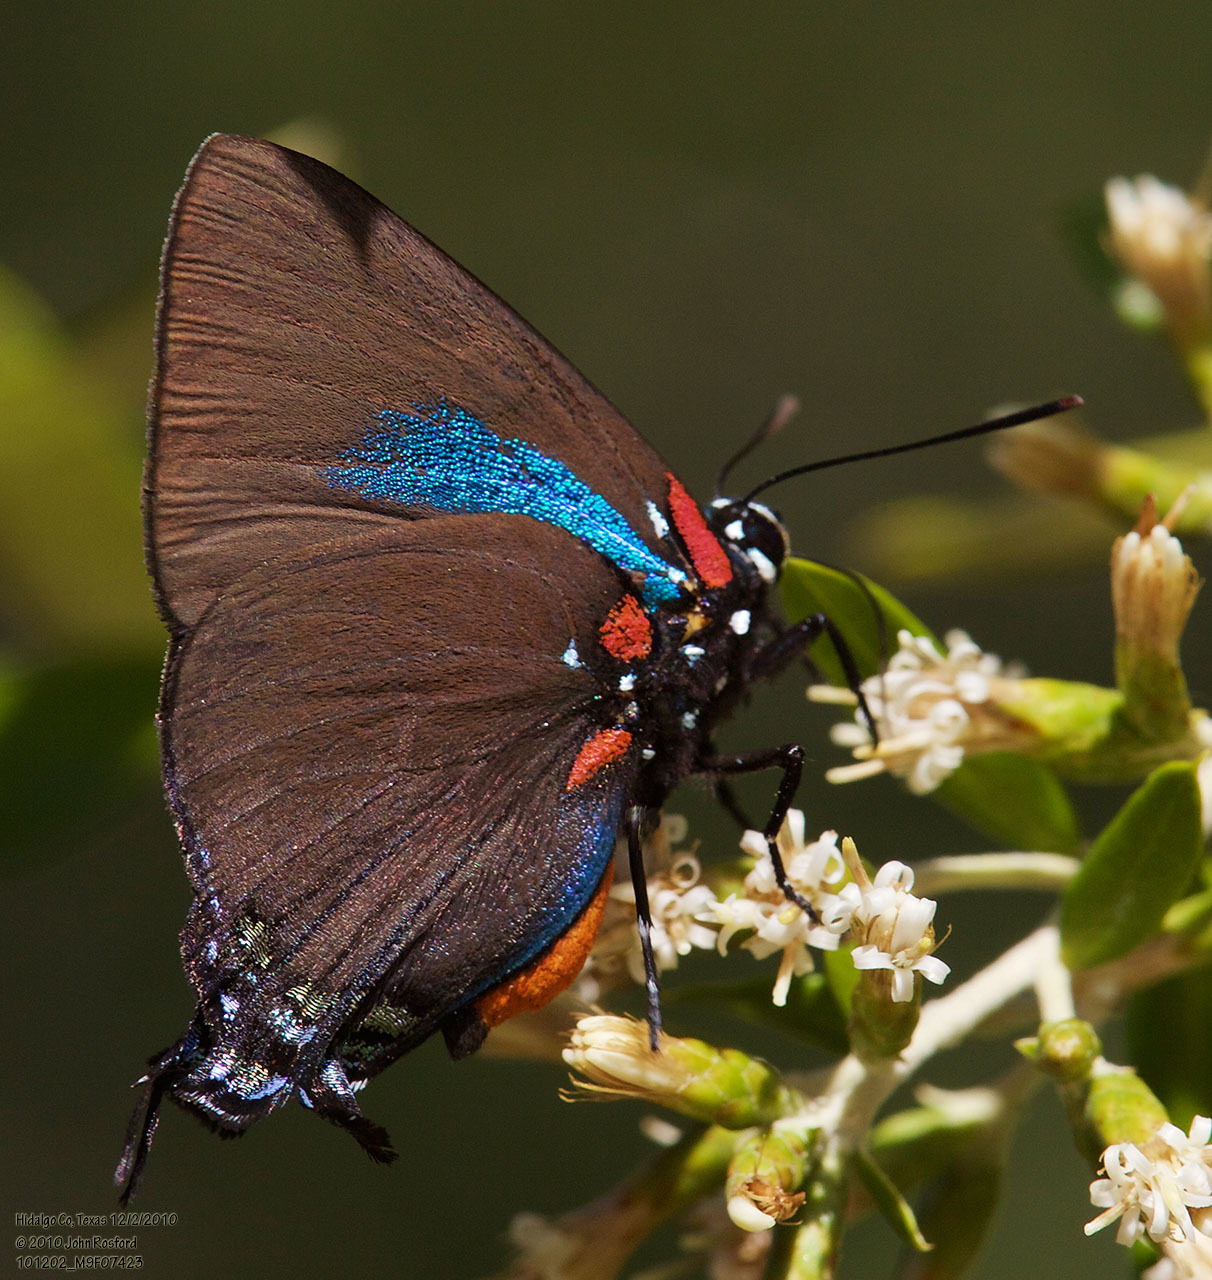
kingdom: Animalia
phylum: Arthropoda
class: Insecta
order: Lepidoptera
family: Lycaenidae
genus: Atlides
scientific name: Atlides halesus
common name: Great purple hairstreak
